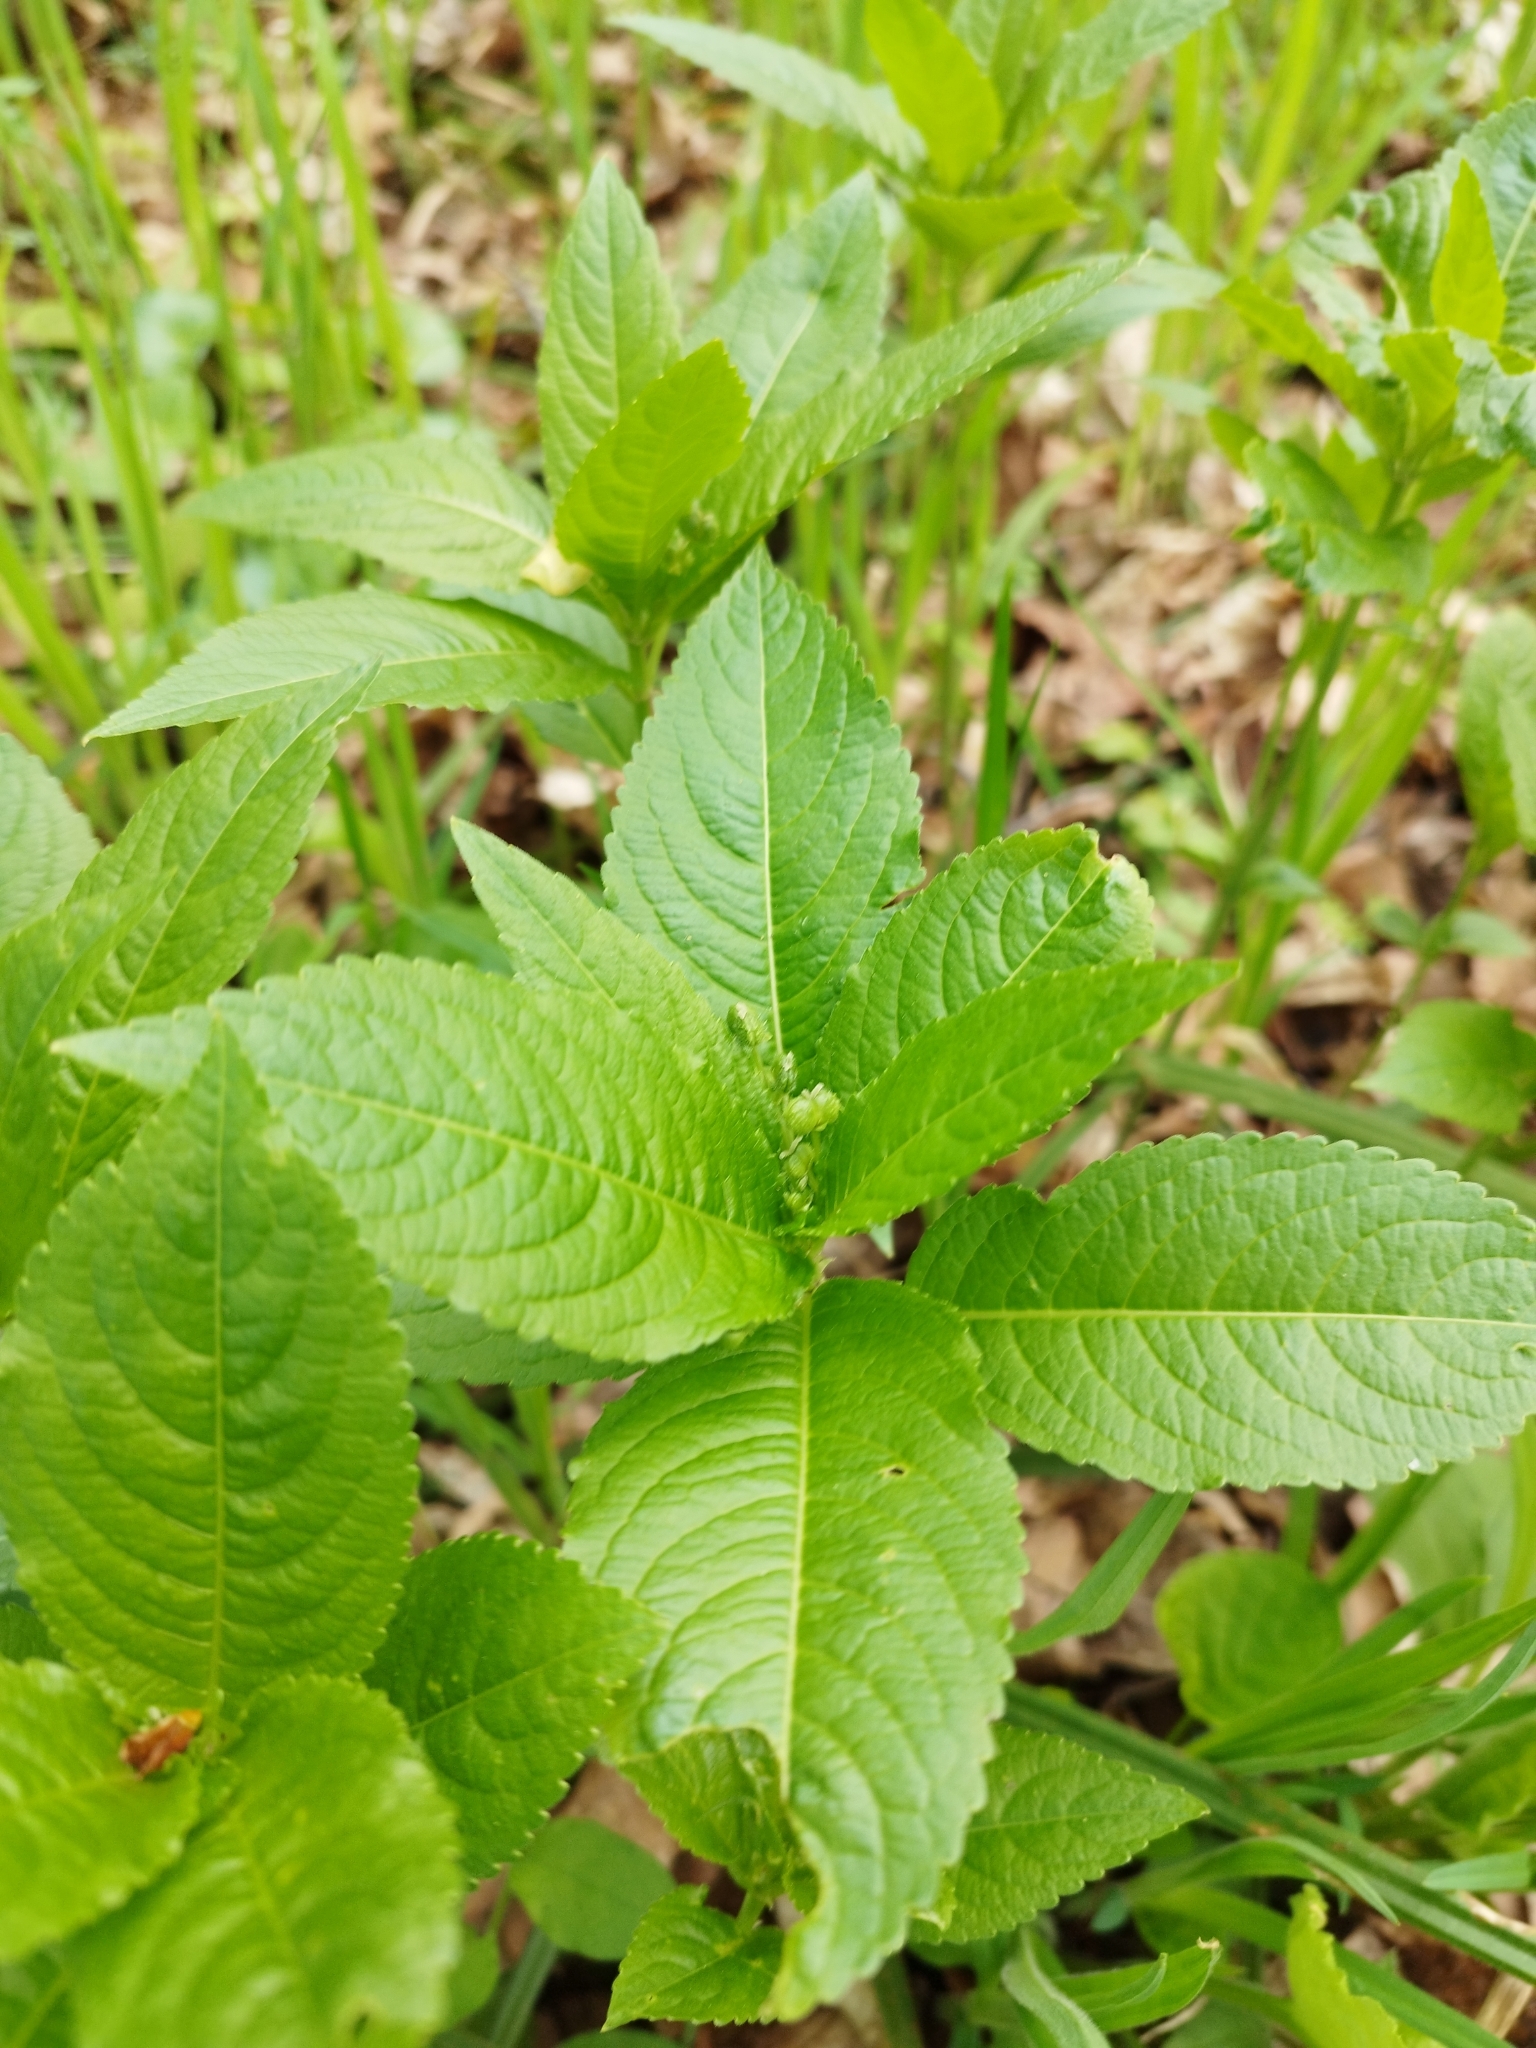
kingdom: Plantae
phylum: Tracheophyta
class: Magnoliopsida
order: Malpighiales
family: Euphorbiaceae
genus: Mercurialis
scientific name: Mercurialis perennis
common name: Dog mercury
